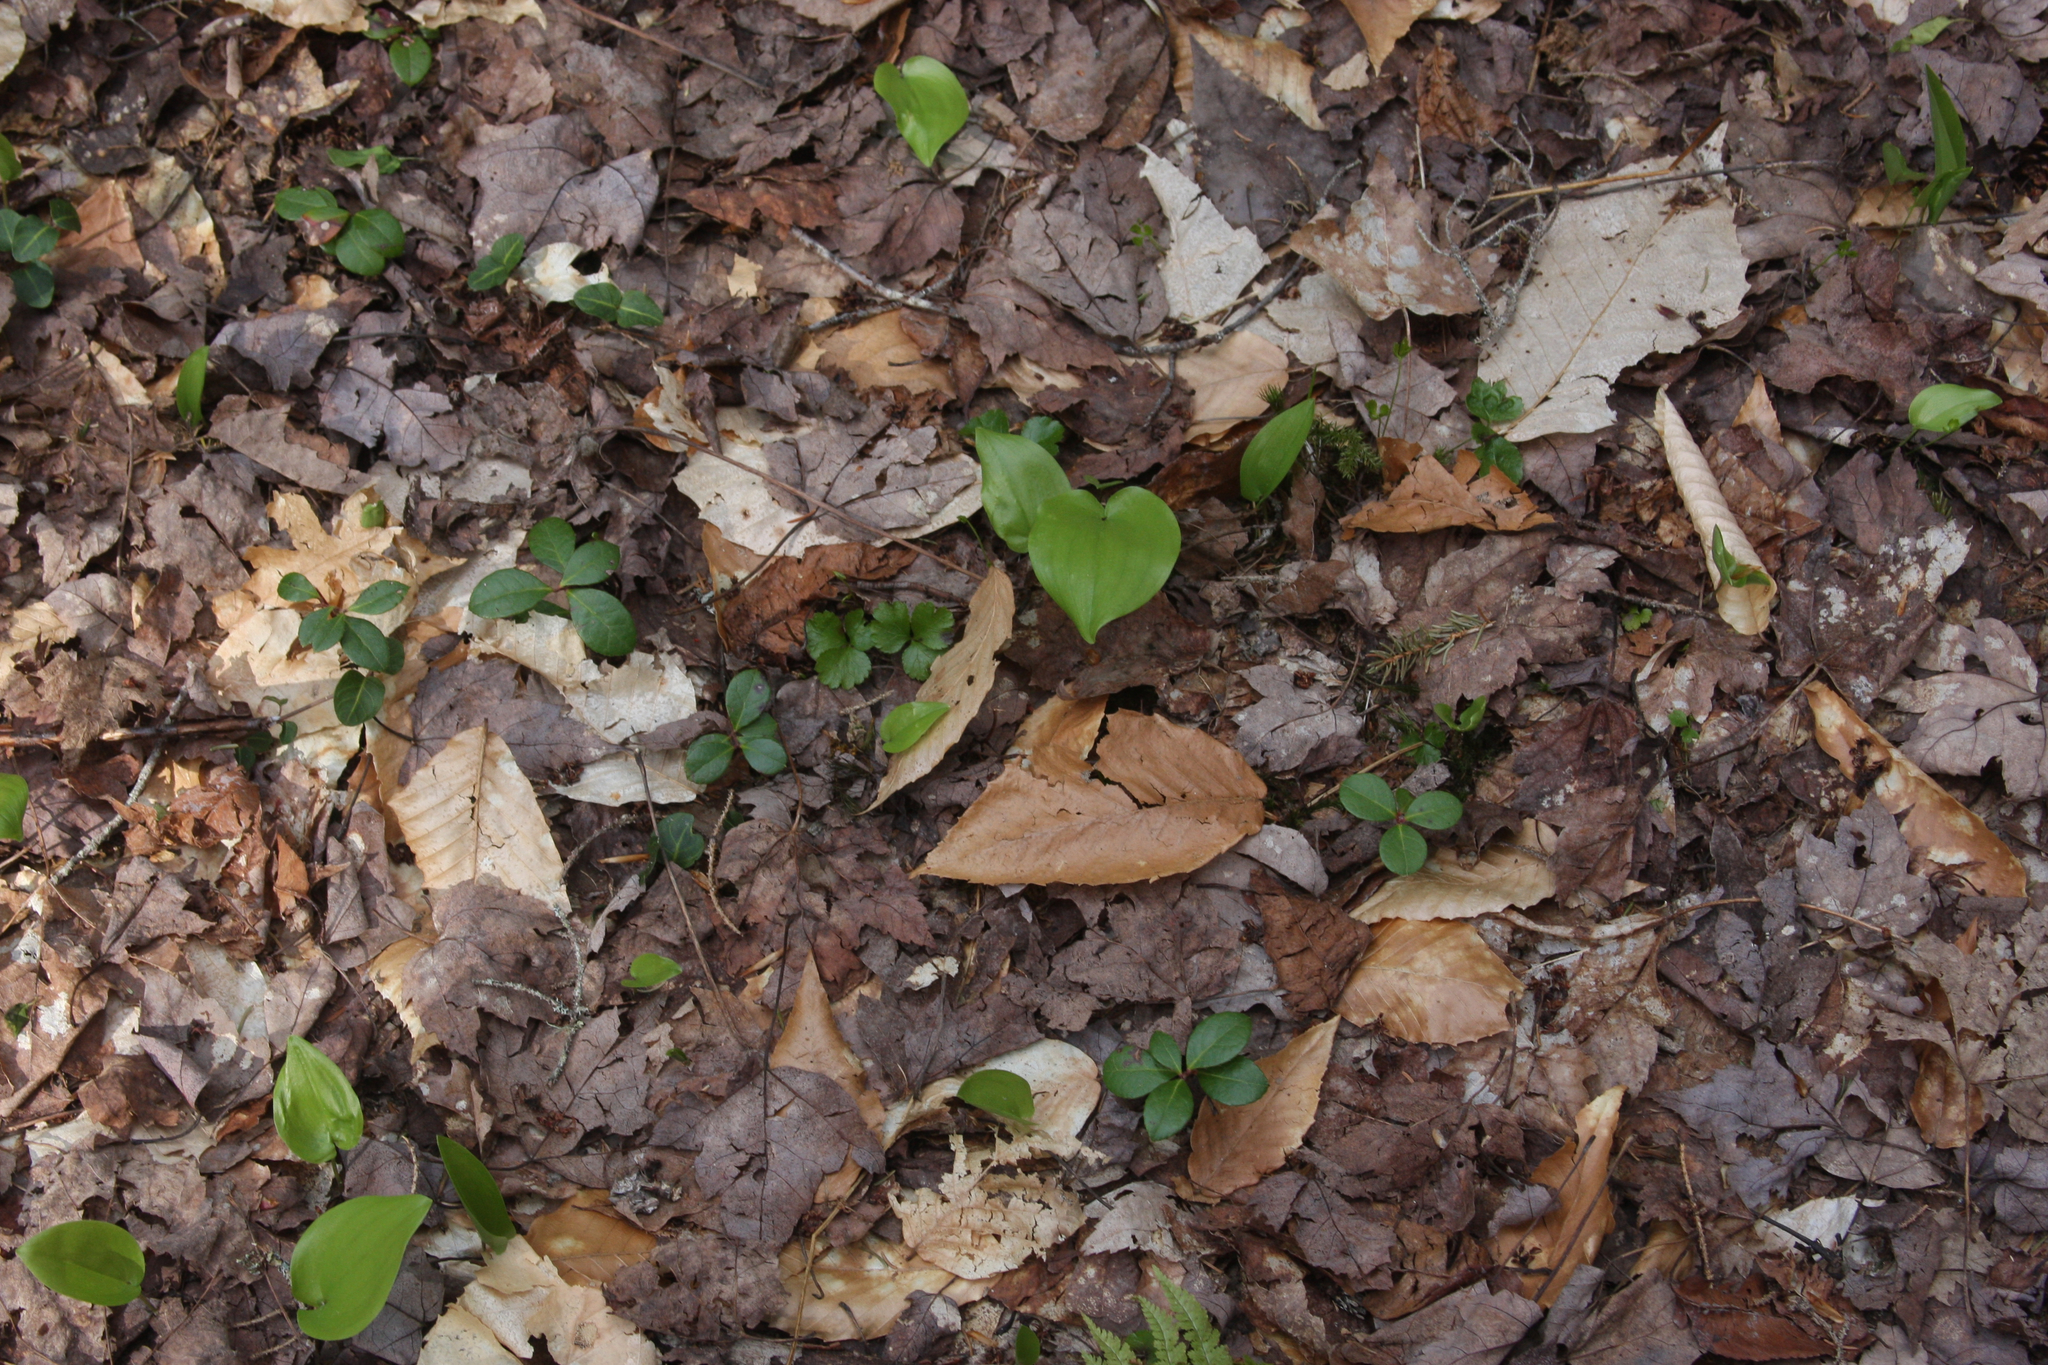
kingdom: Plantae
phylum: Tracheophyta
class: Liliopsida
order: Asparagales
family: Asparagaceae
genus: Maianthemum
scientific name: Maianthemum canadense
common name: False lily-of-the-valley
